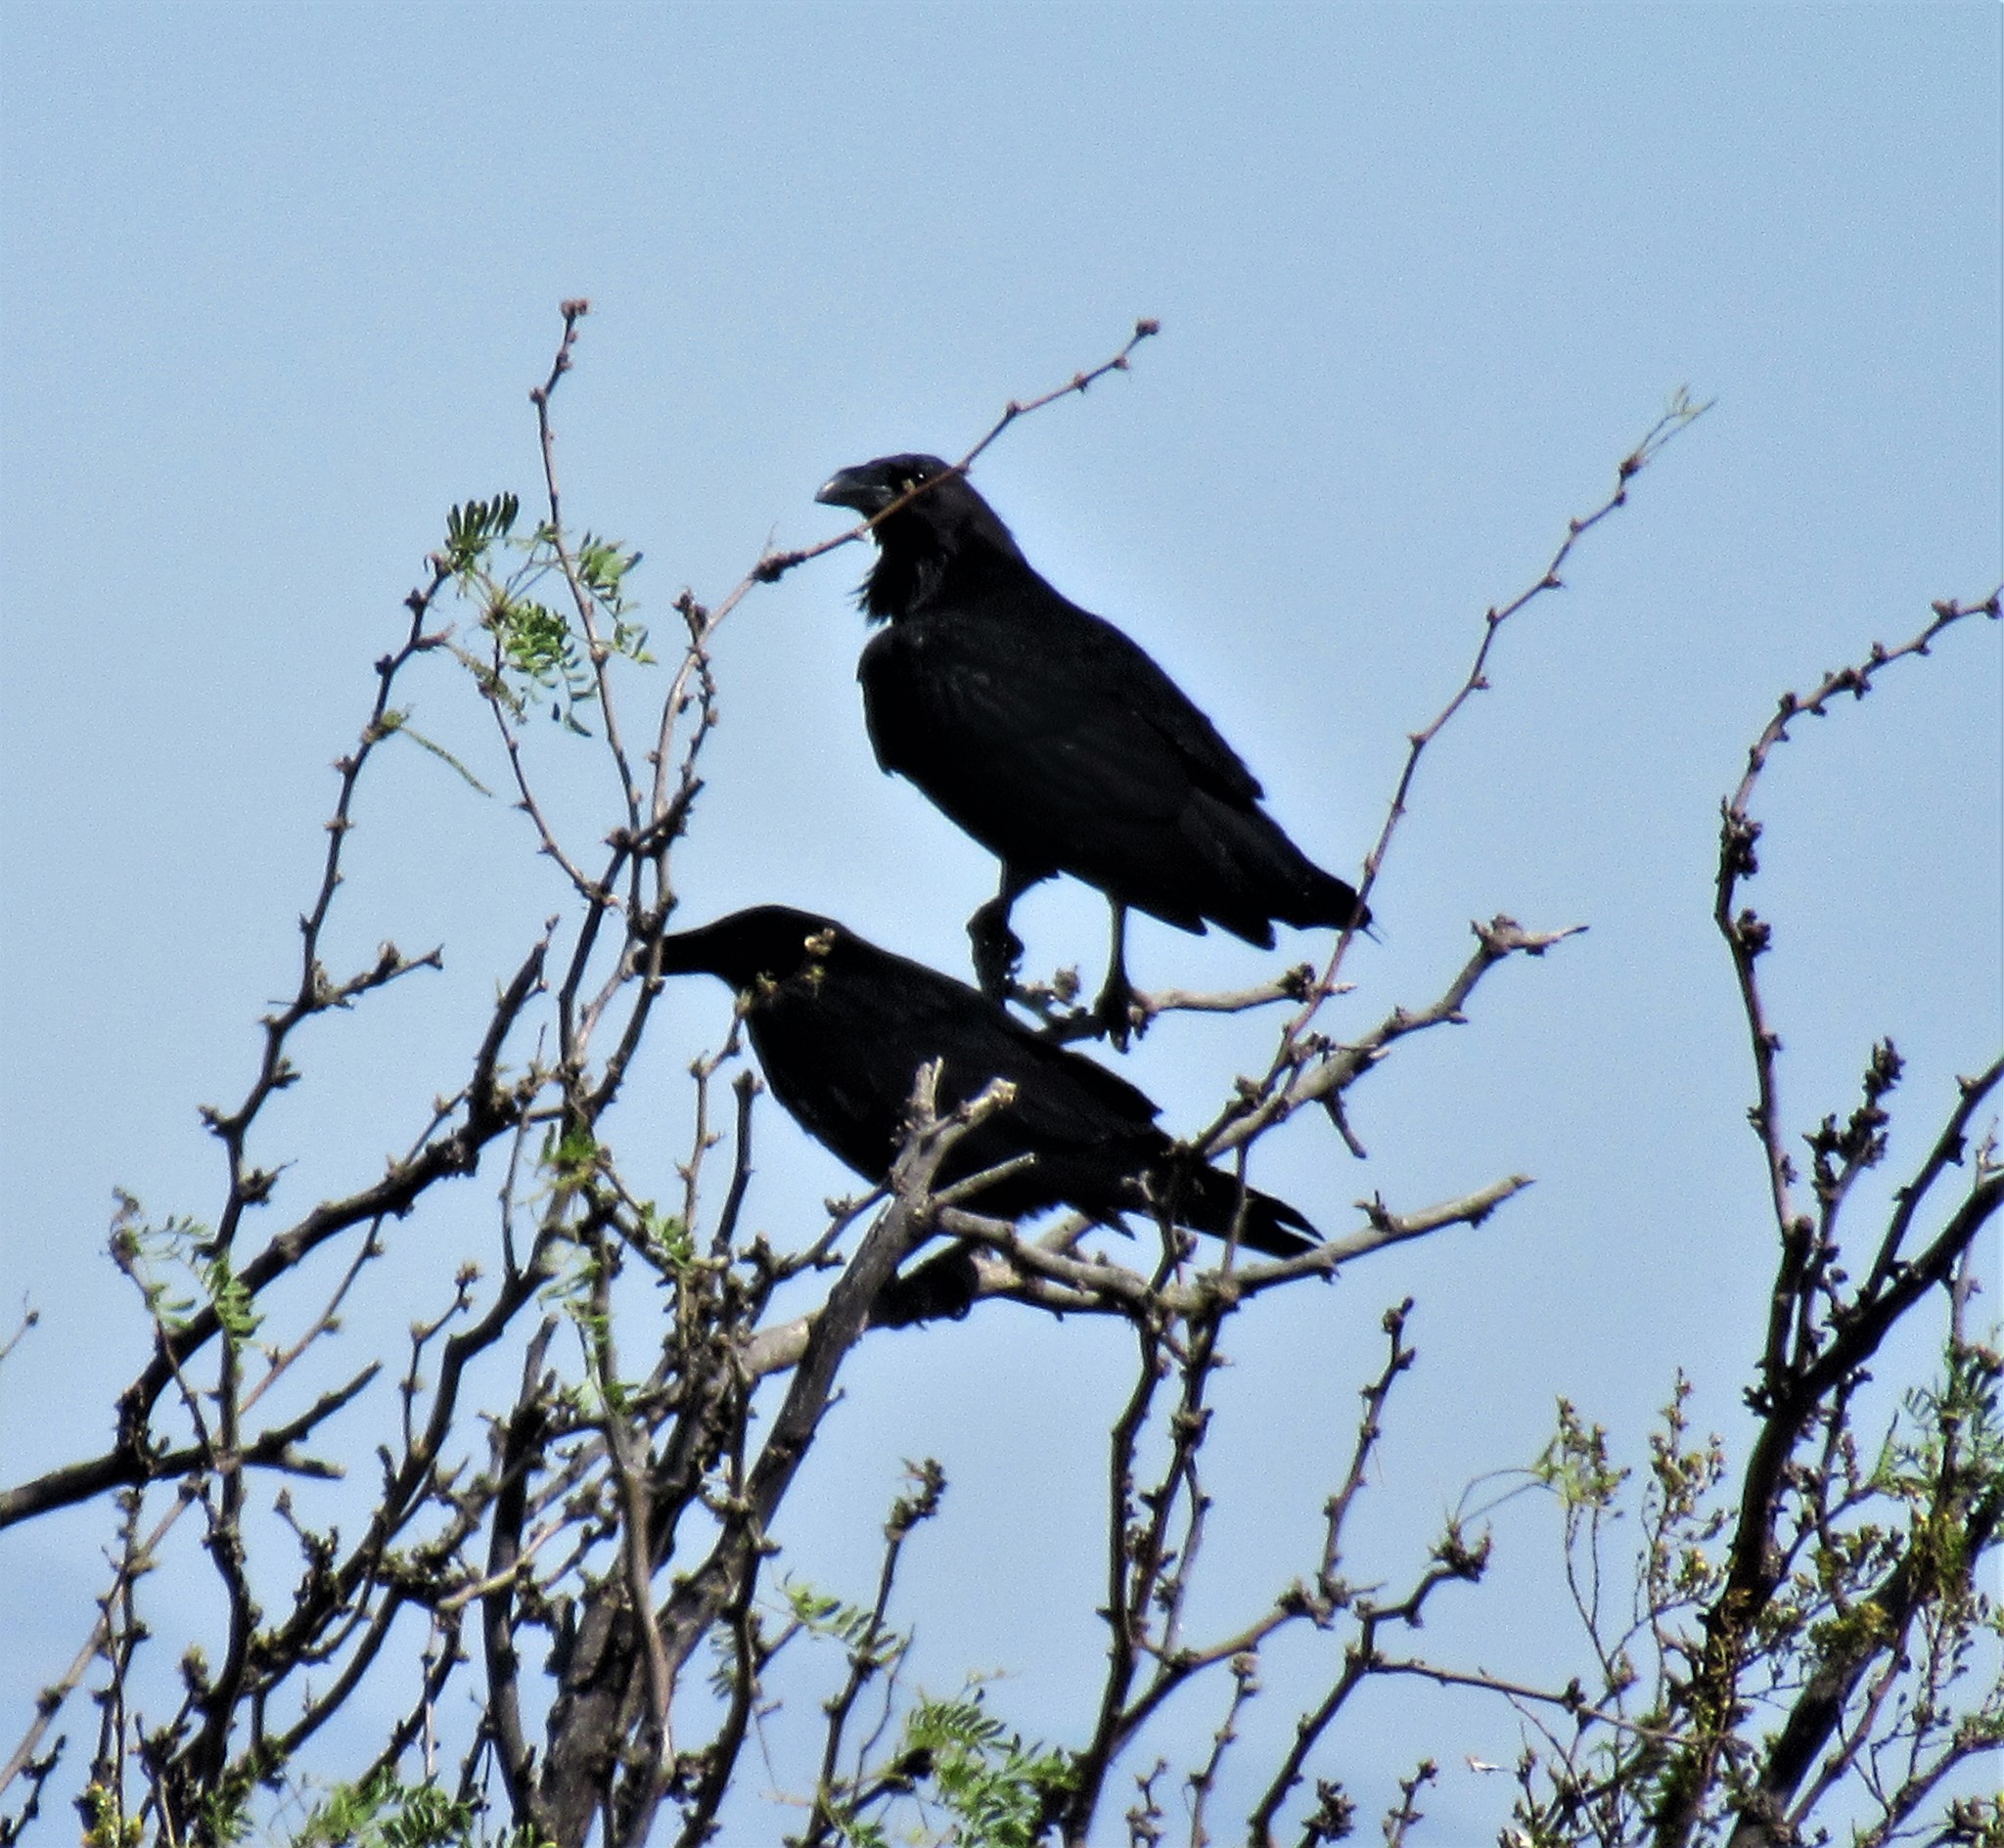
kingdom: Animalia
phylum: Chordata
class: Aves
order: Passeriformes
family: Corvidae
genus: Corvus
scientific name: Corvus cryptoleucus
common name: Chihuahuan raven
